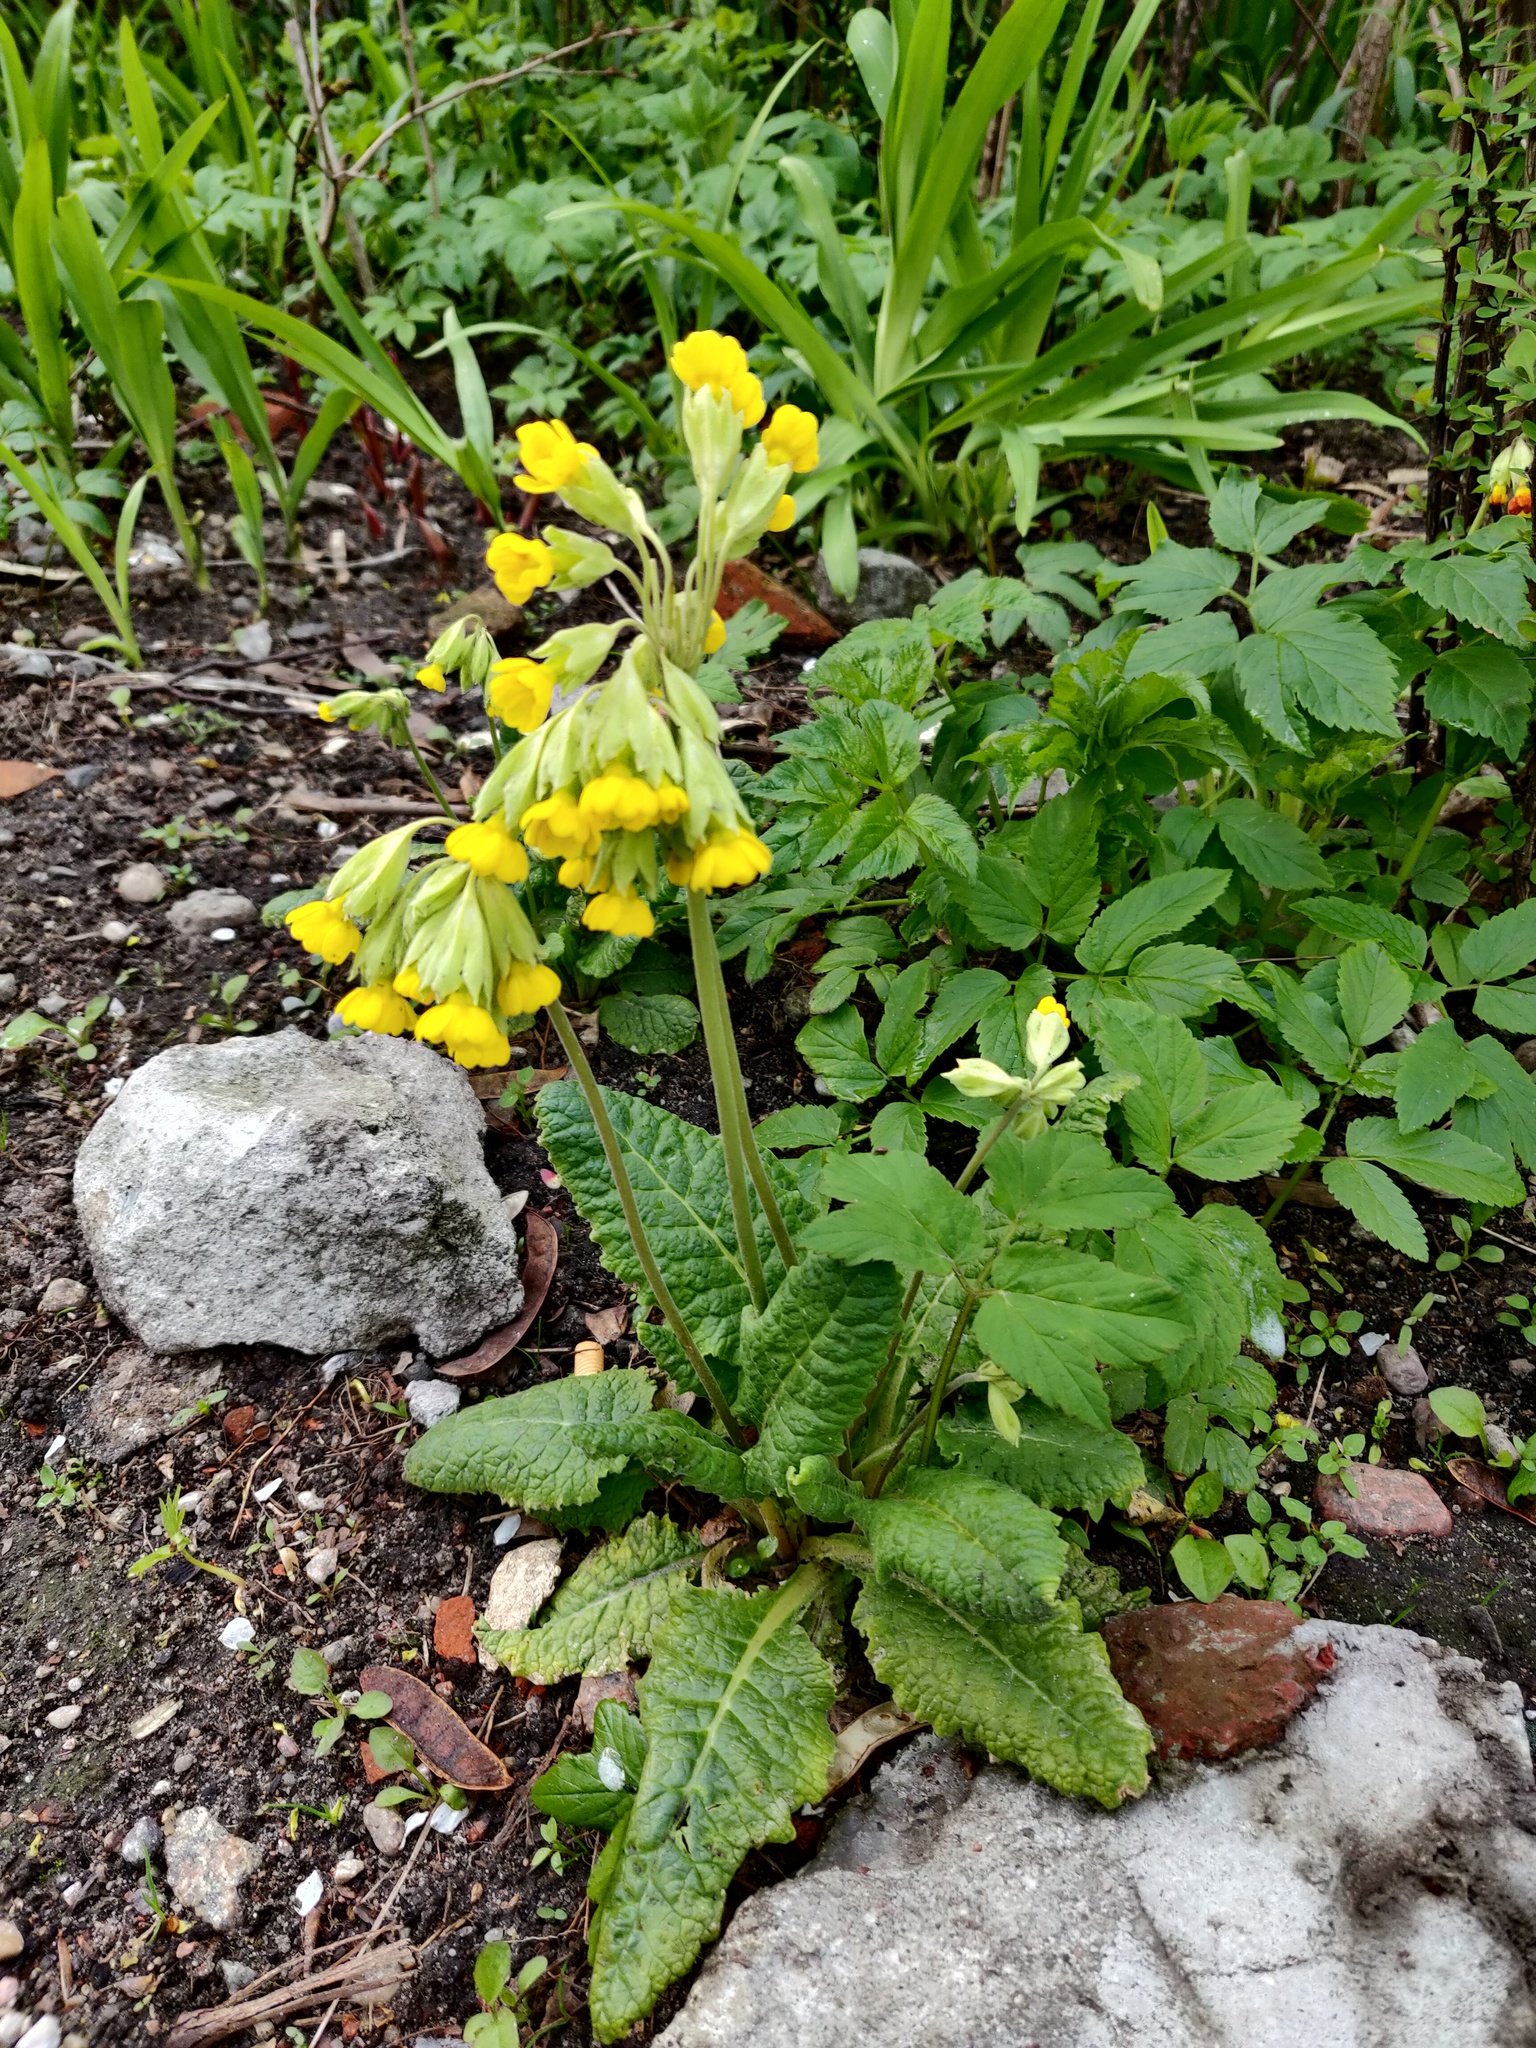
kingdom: Plantae
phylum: Tracheophyta
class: Magnoliopsida
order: Ericales
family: Primulaceae
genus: Primula
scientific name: Primula veris
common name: Cowslip
